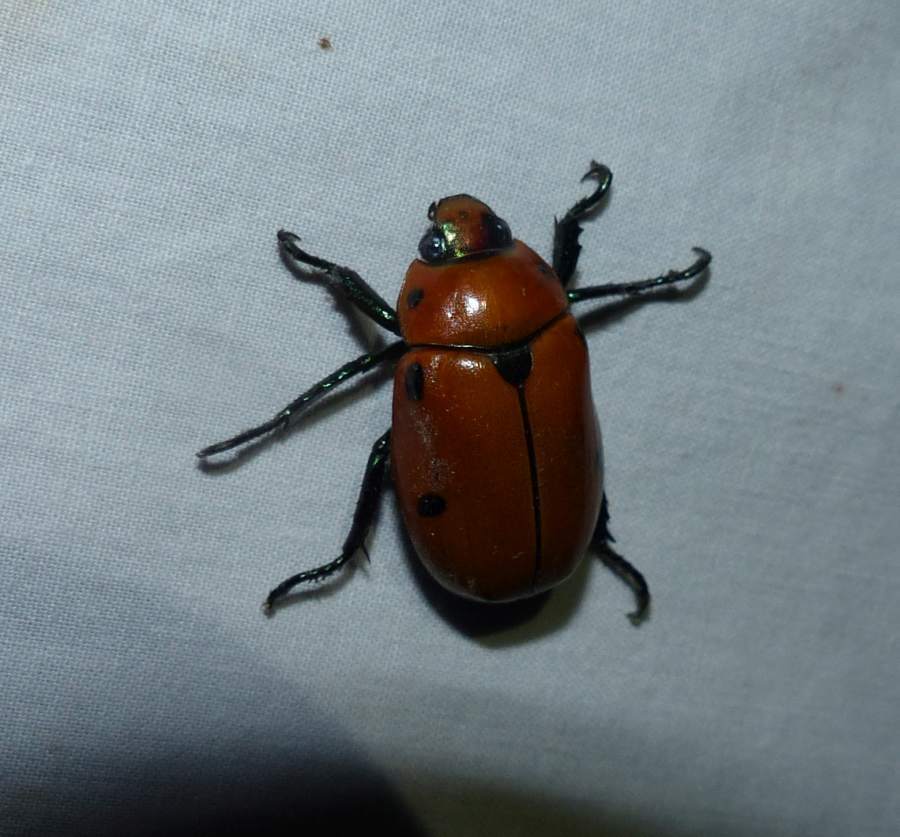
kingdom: Animalia
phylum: Arthropoda
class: Insecta
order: Coleoptera
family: Scarabaeidae
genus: Pelidnota
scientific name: Pelidnota punctata
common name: Grapevine beetle
